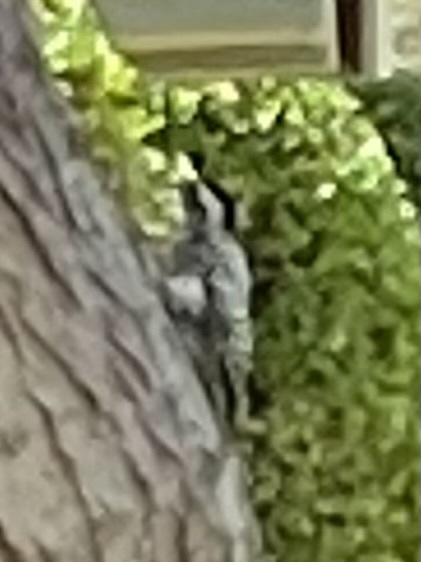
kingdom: Animalia
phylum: Chordata
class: Aves
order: Piciformes
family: Picidae
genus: Dryobates
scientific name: Dryobates scalaris
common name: Ladder-backed woodpecker
